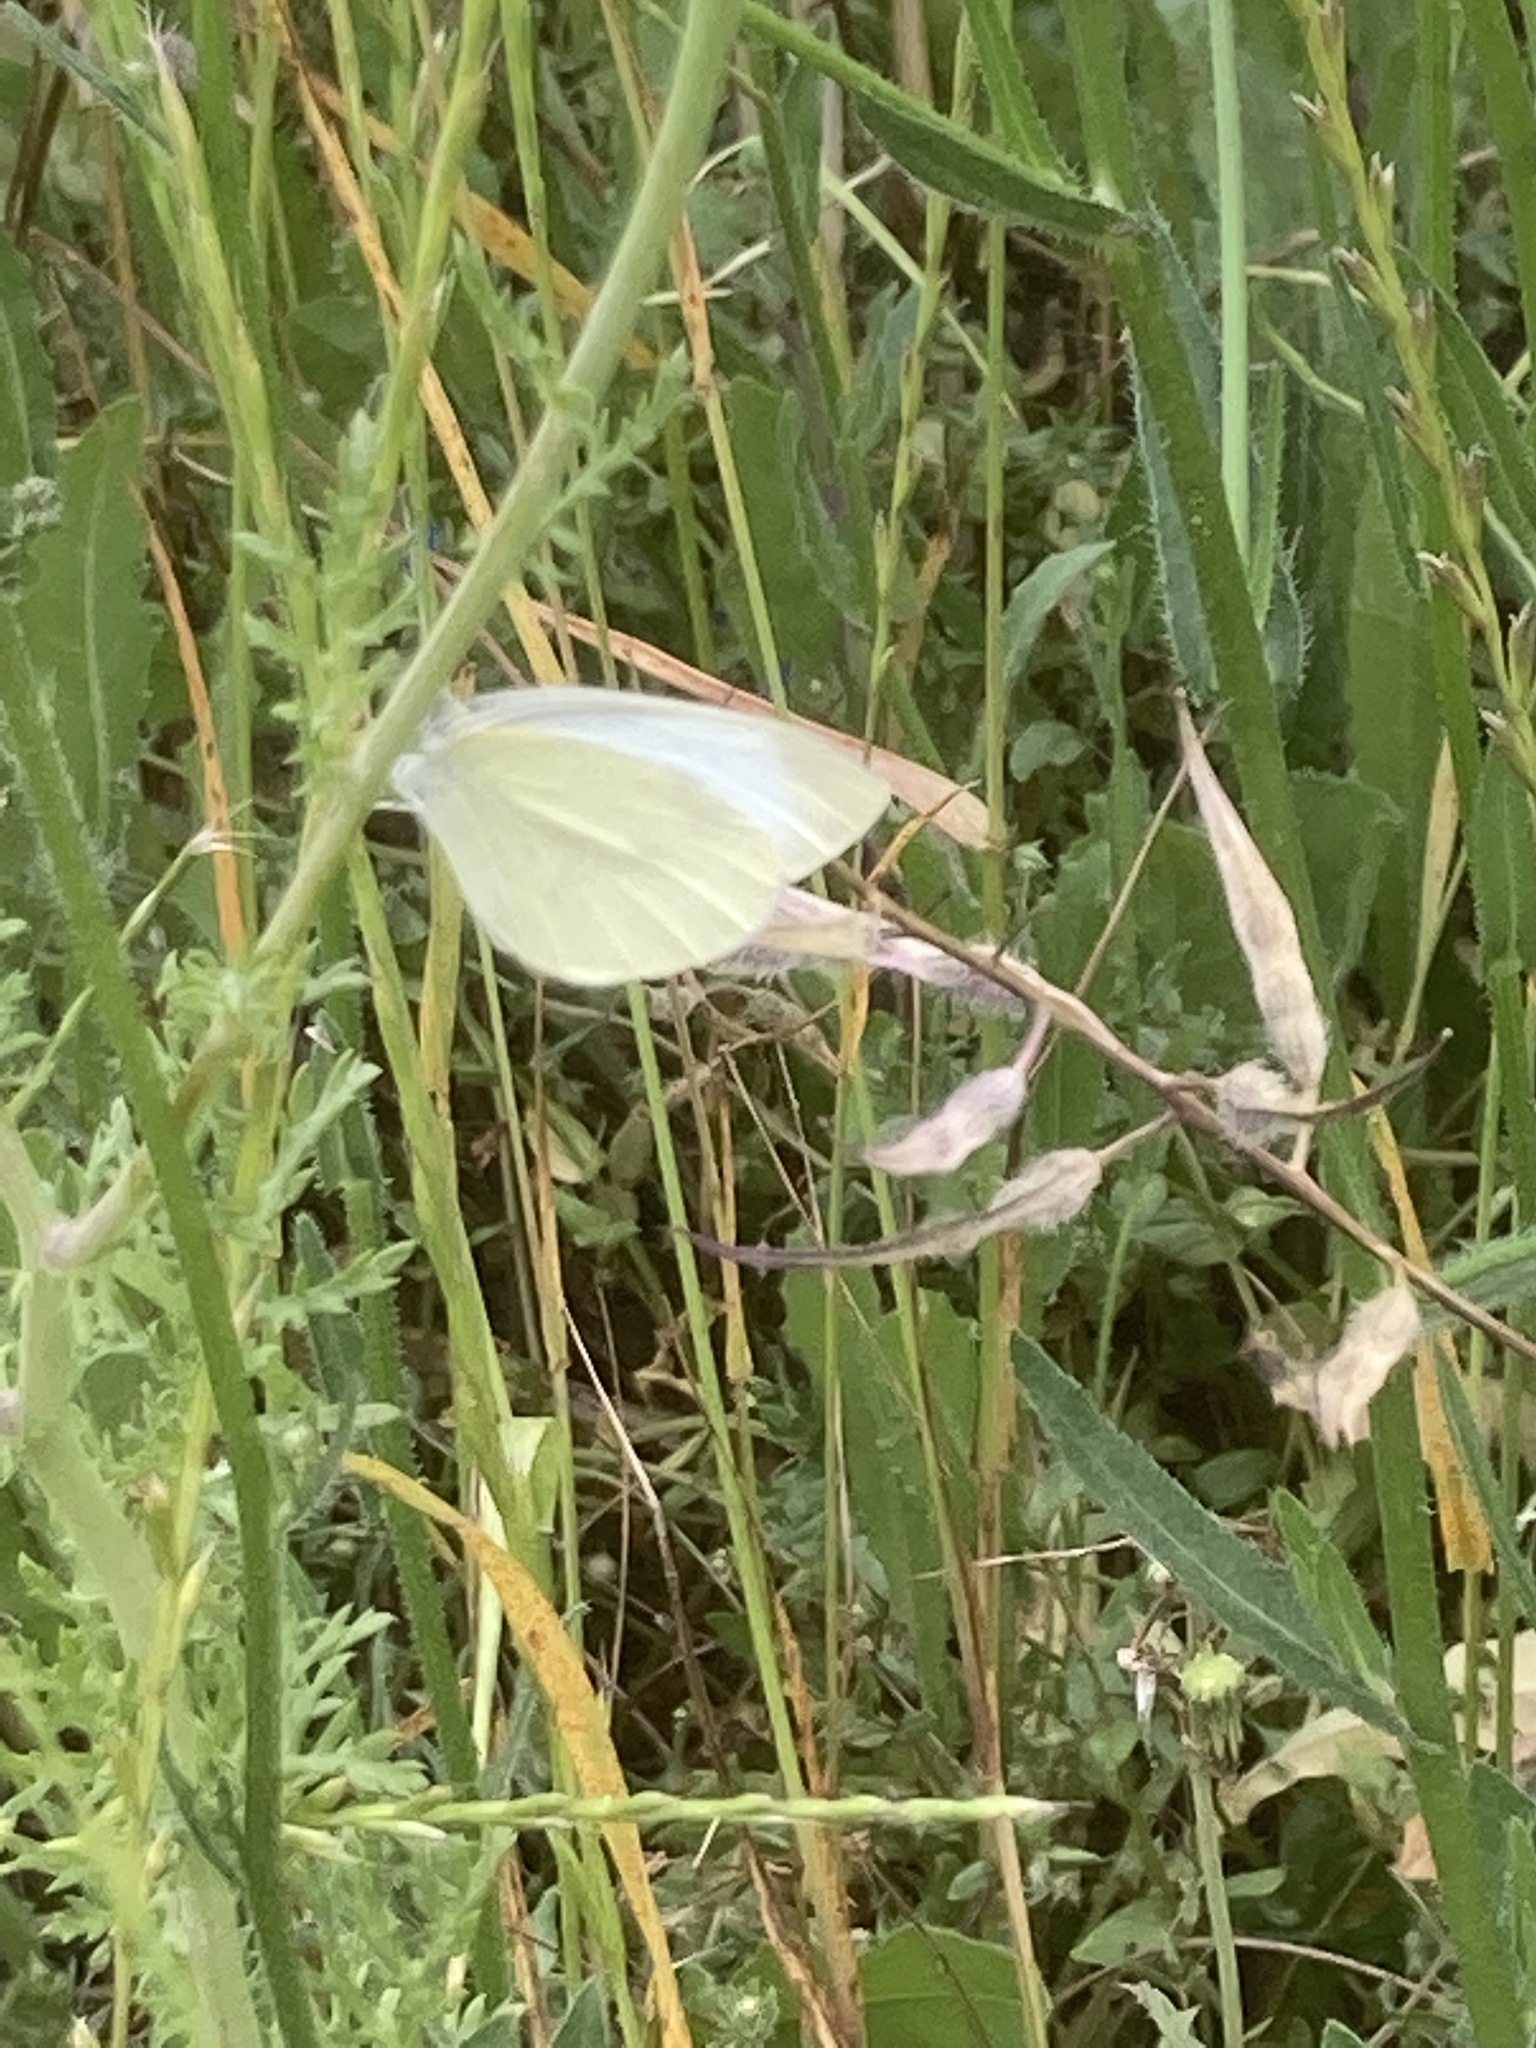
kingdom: Animalia
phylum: Arthropoda
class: Insecta
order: Lepidoptera
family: Pieridae
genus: Pieris
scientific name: Pieris rapae
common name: Small white
